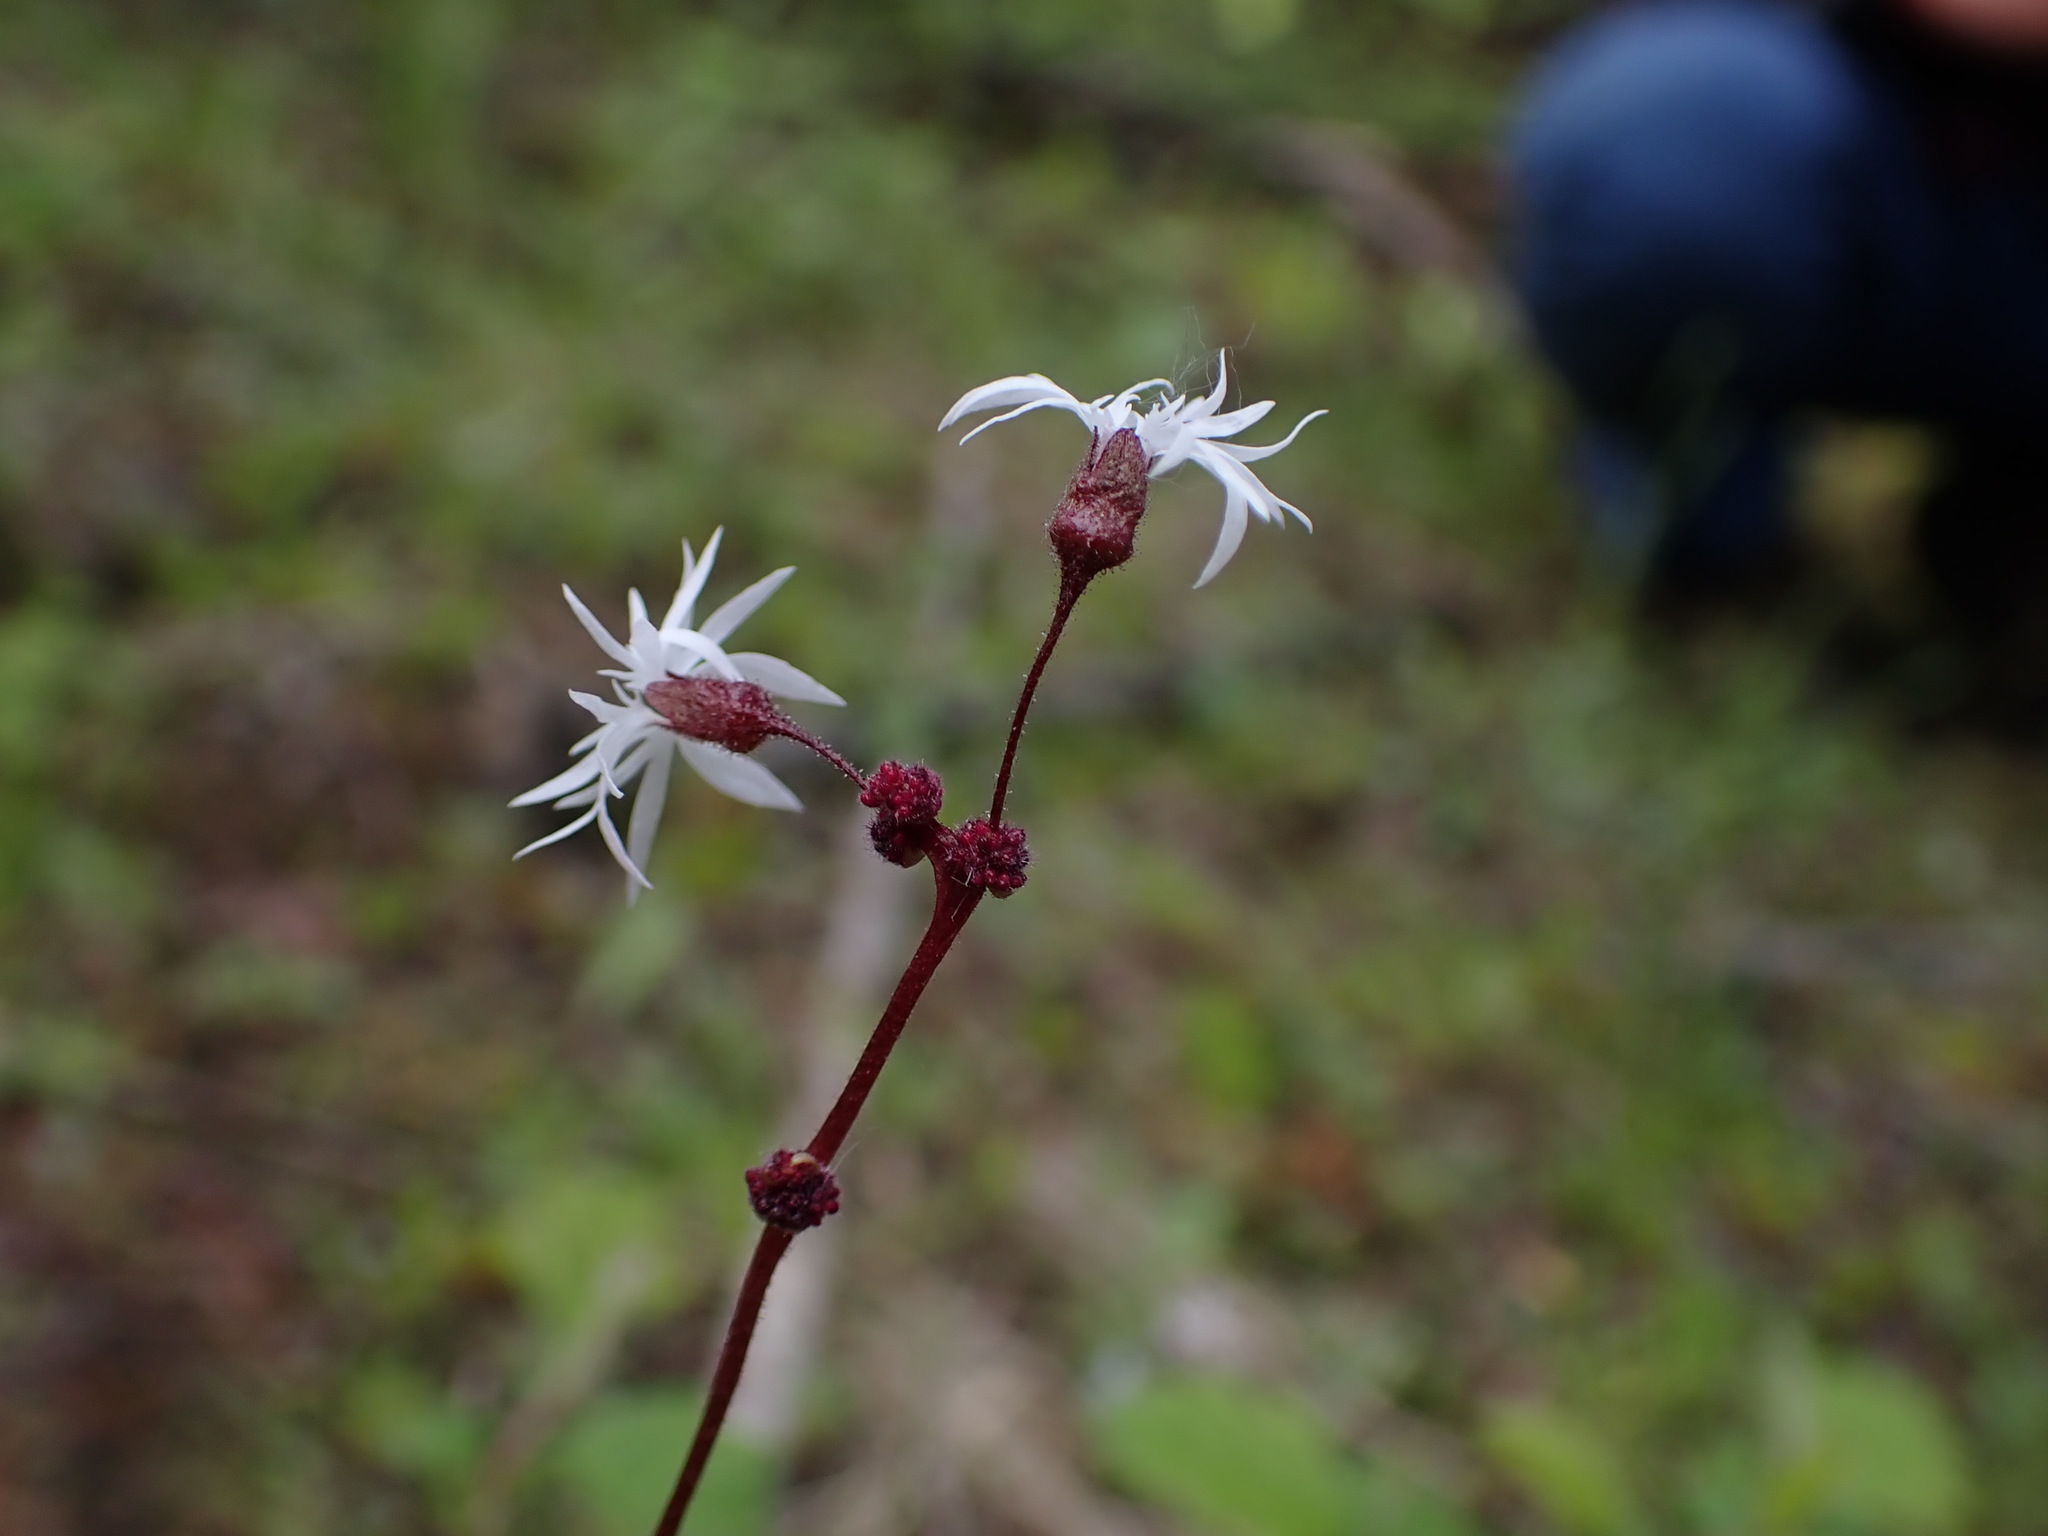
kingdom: Plantae
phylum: Tracheophyta
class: Magnoliopsida
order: Saxifragales
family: Saxifragaceae
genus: Lithophragma
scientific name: Lithophragma glabrum
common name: Bulbous prairie-star
